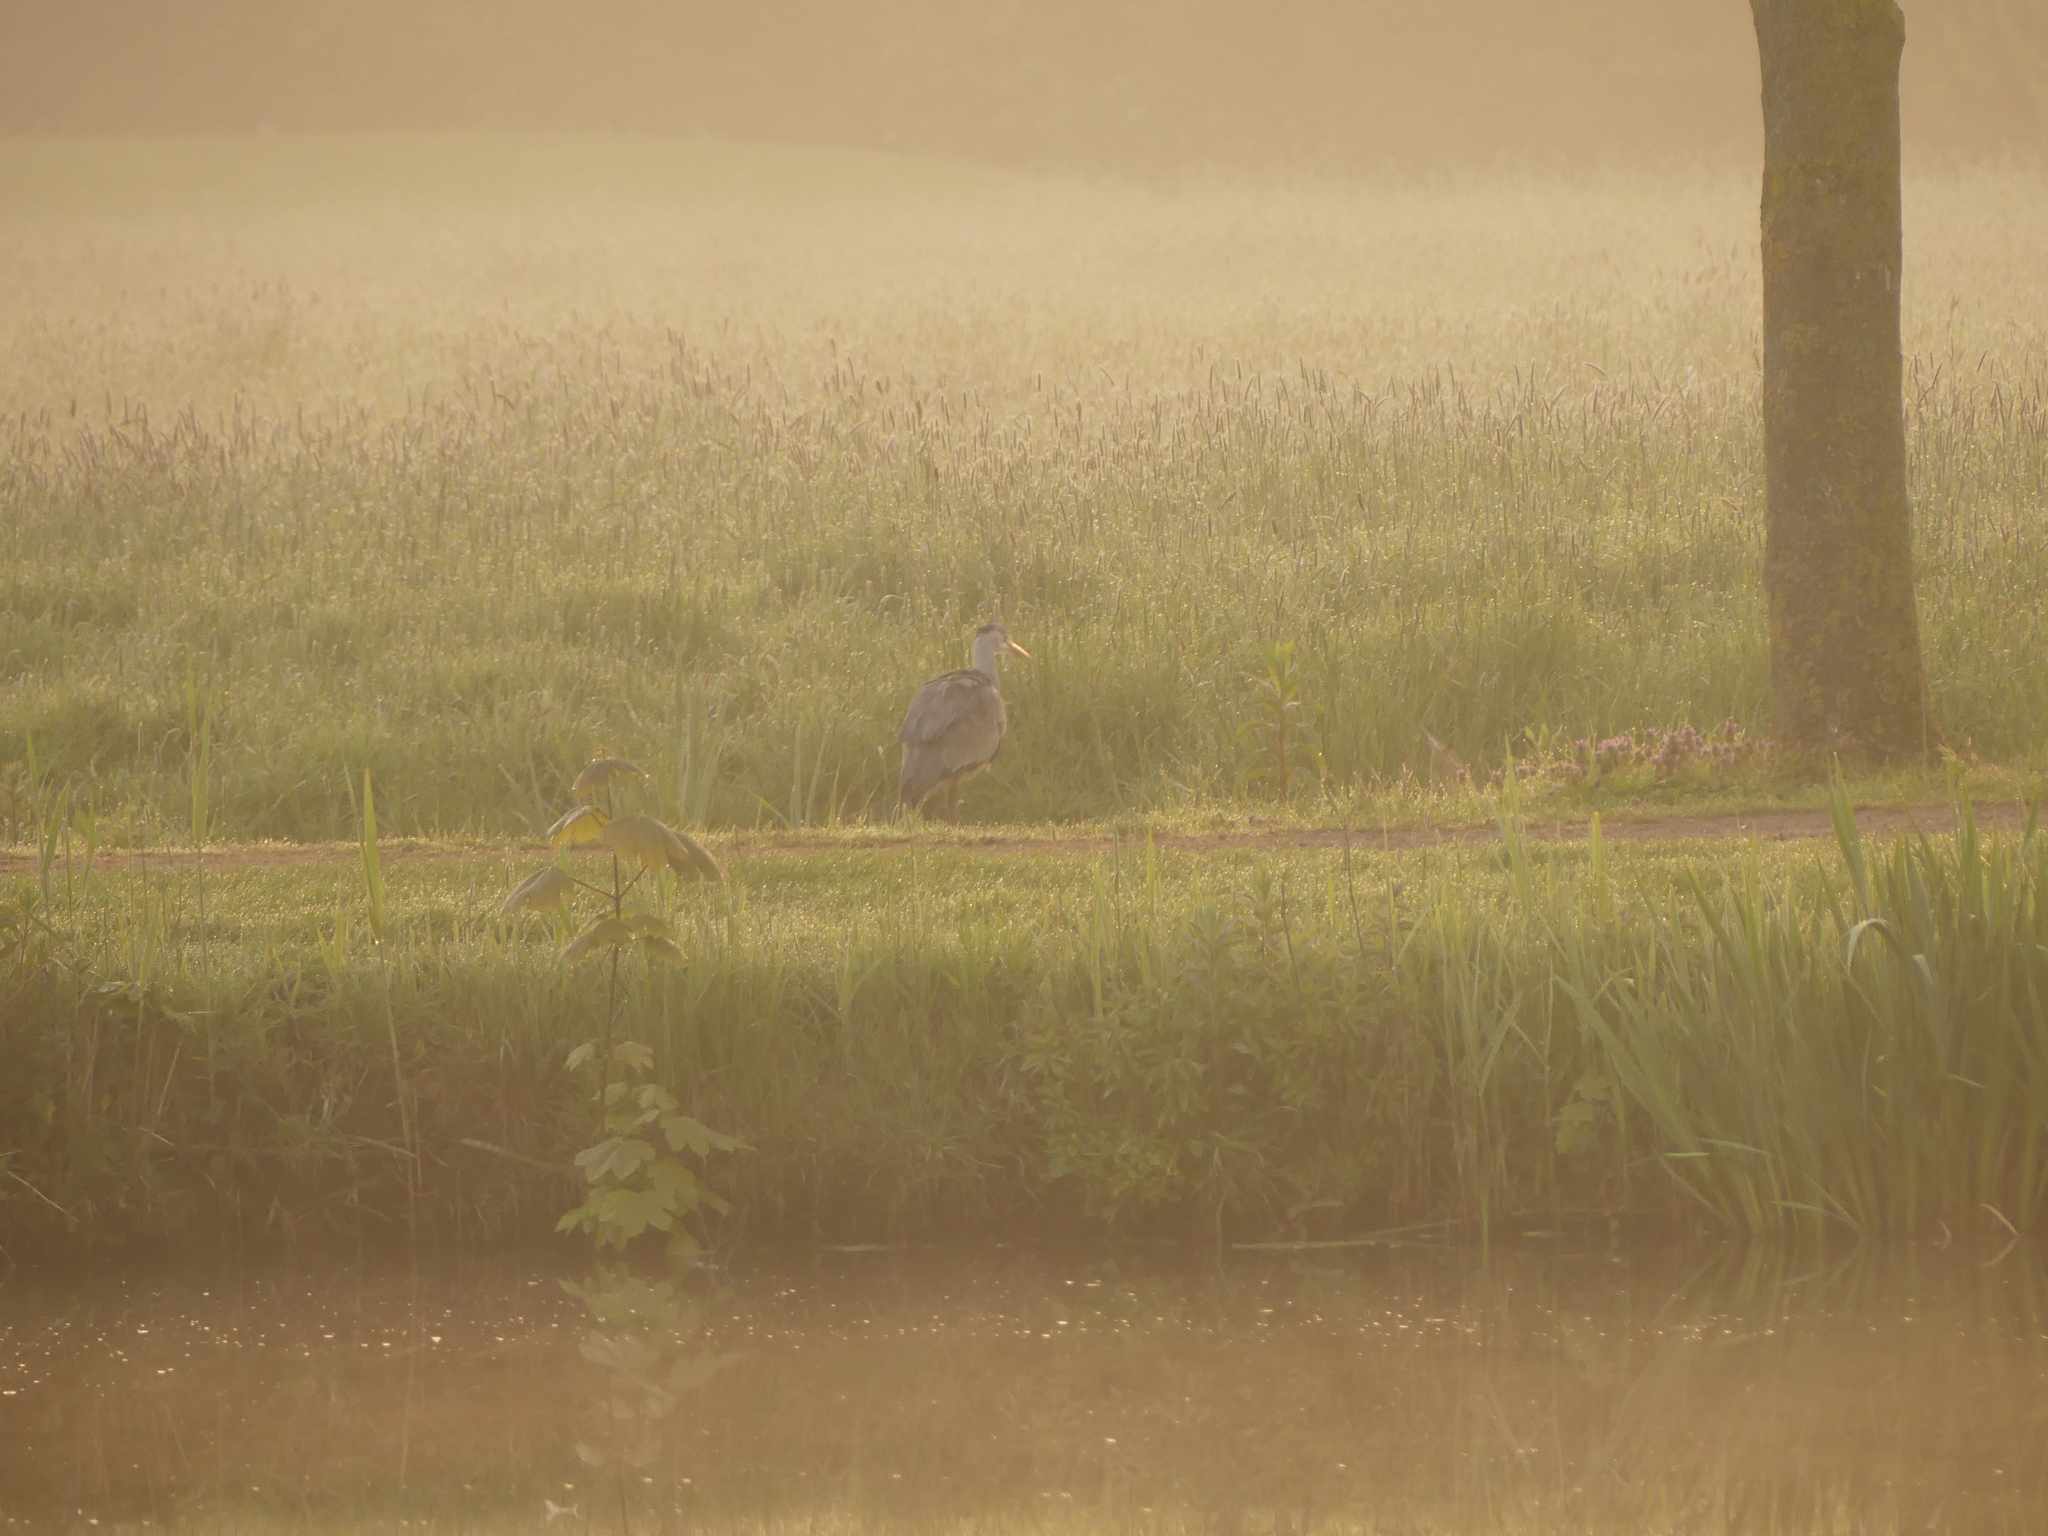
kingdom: Animalia
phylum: Chordata
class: Aves
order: Pelecaniformes
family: Ardeidae
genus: Ardea
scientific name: Ardea cinerea
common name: Grey heron
